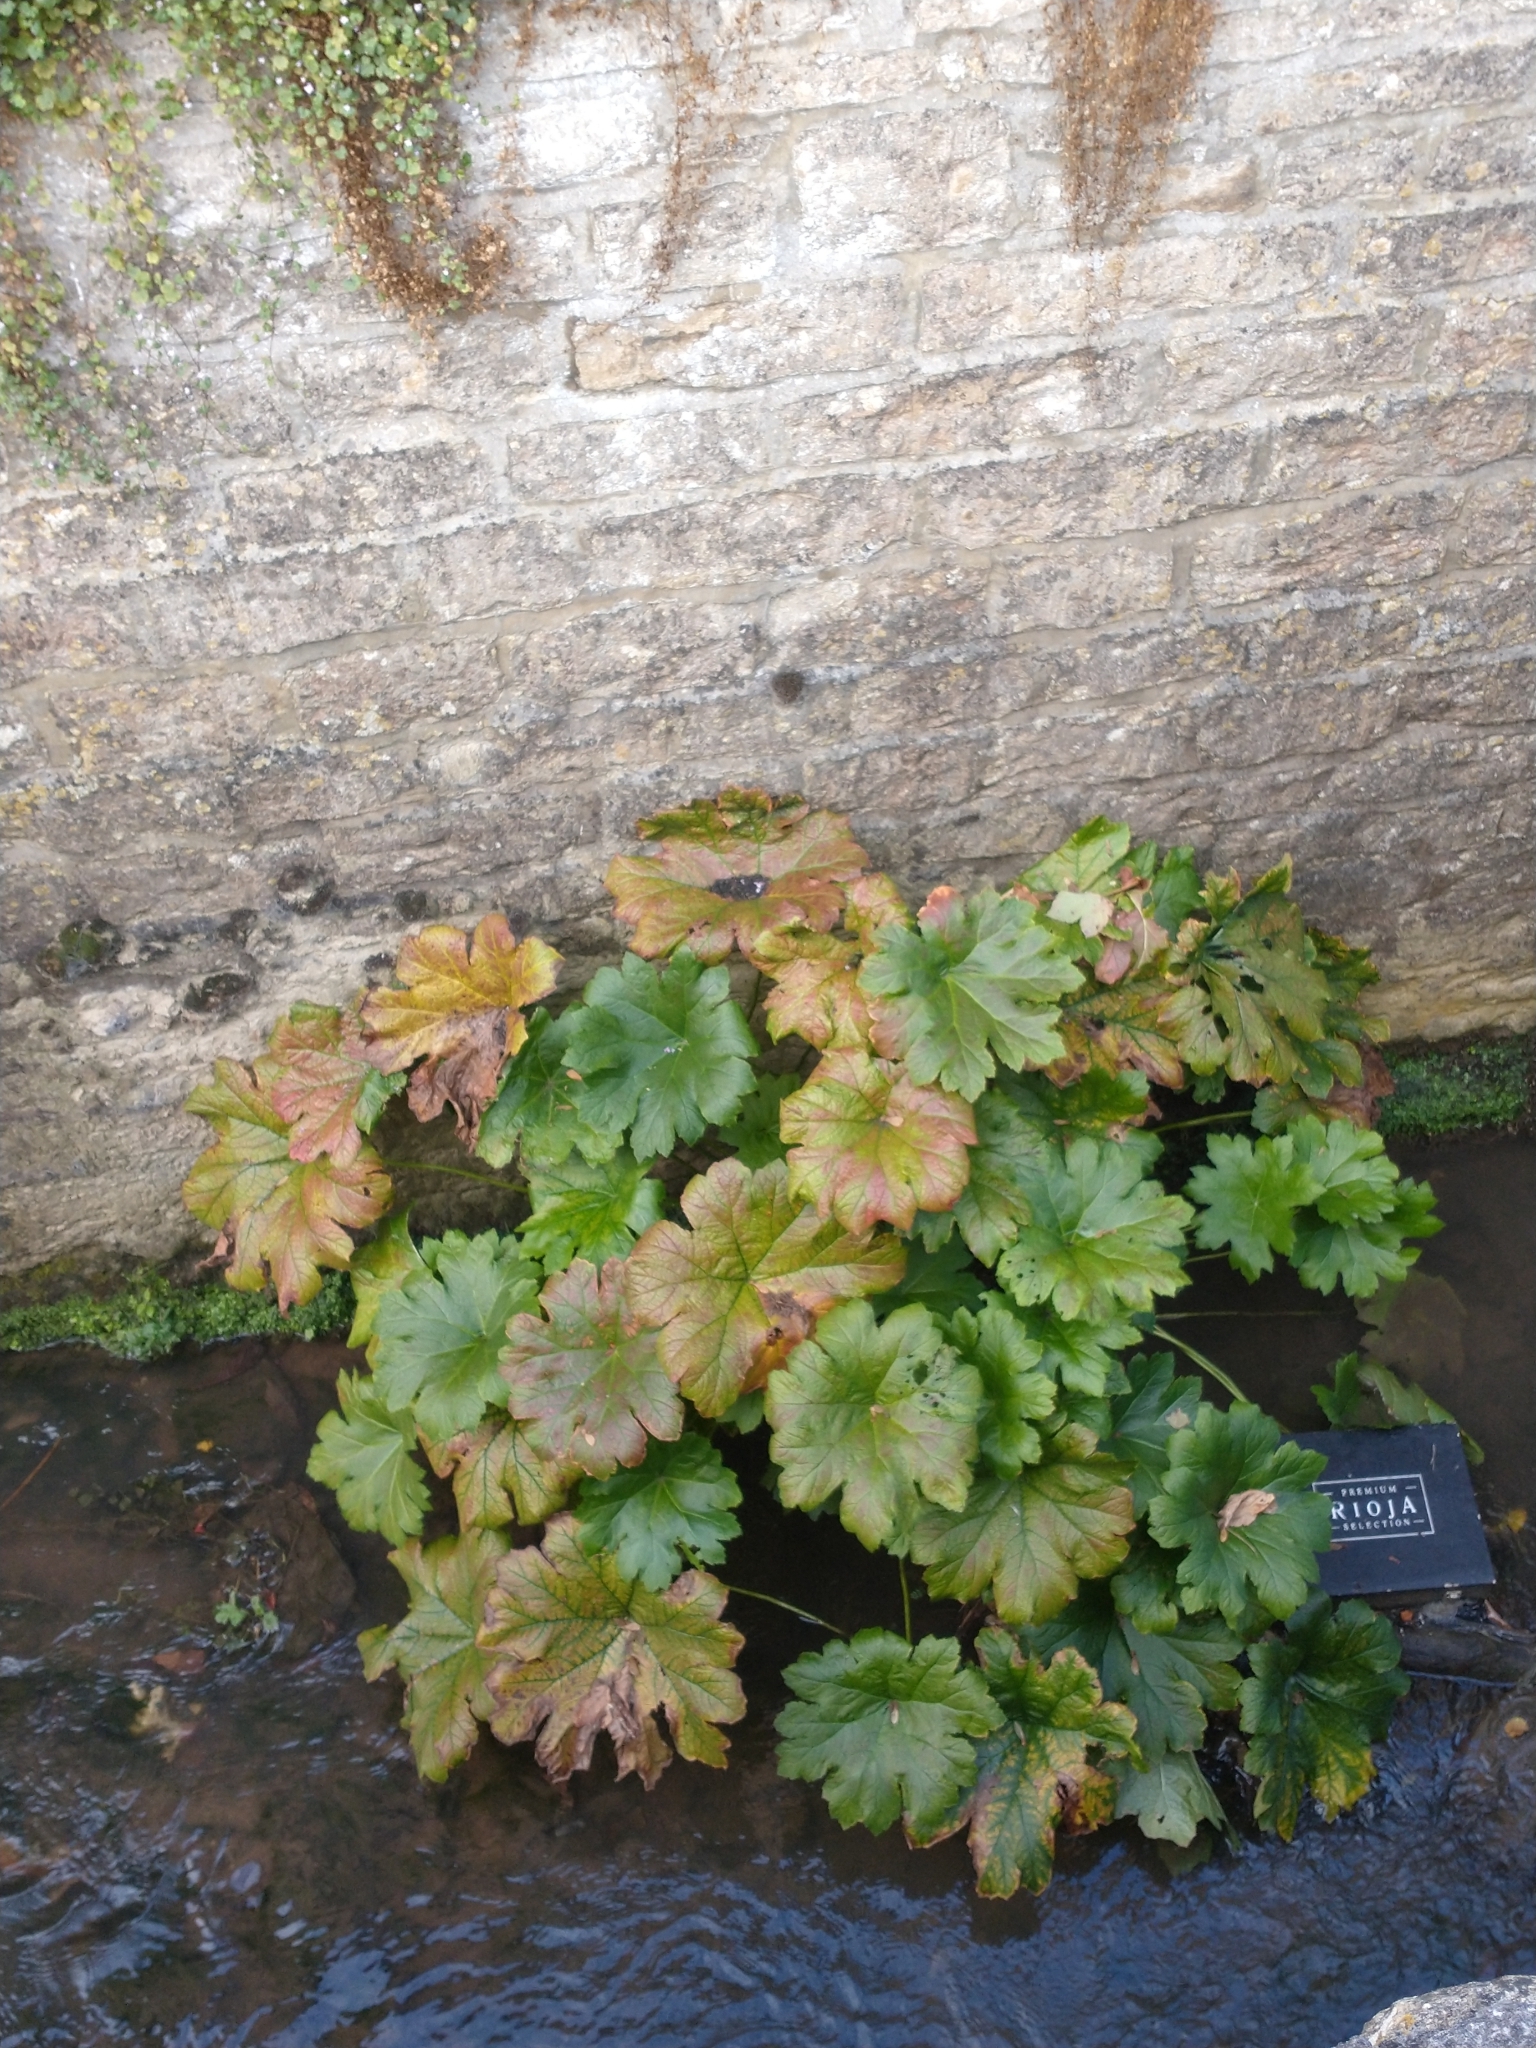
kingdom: Plantae
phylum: Tracheophyta
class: Magnoliopsida
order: Saxifragales
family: Saxifragaceae
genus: Darmera
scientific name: Darmera peltata
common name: Indian-rhubarb
